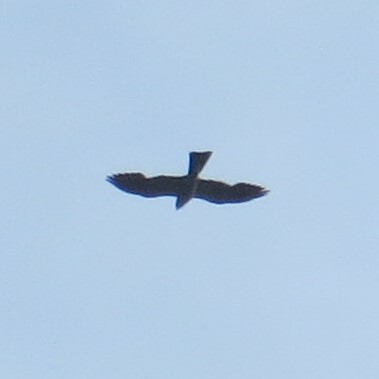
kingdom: Animalia
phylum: Chordata
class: Aves
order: Accipitriformes
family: Accipitridae
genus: Ictinia
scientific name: Ictinia mississippiensis
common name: Mississippi kite
